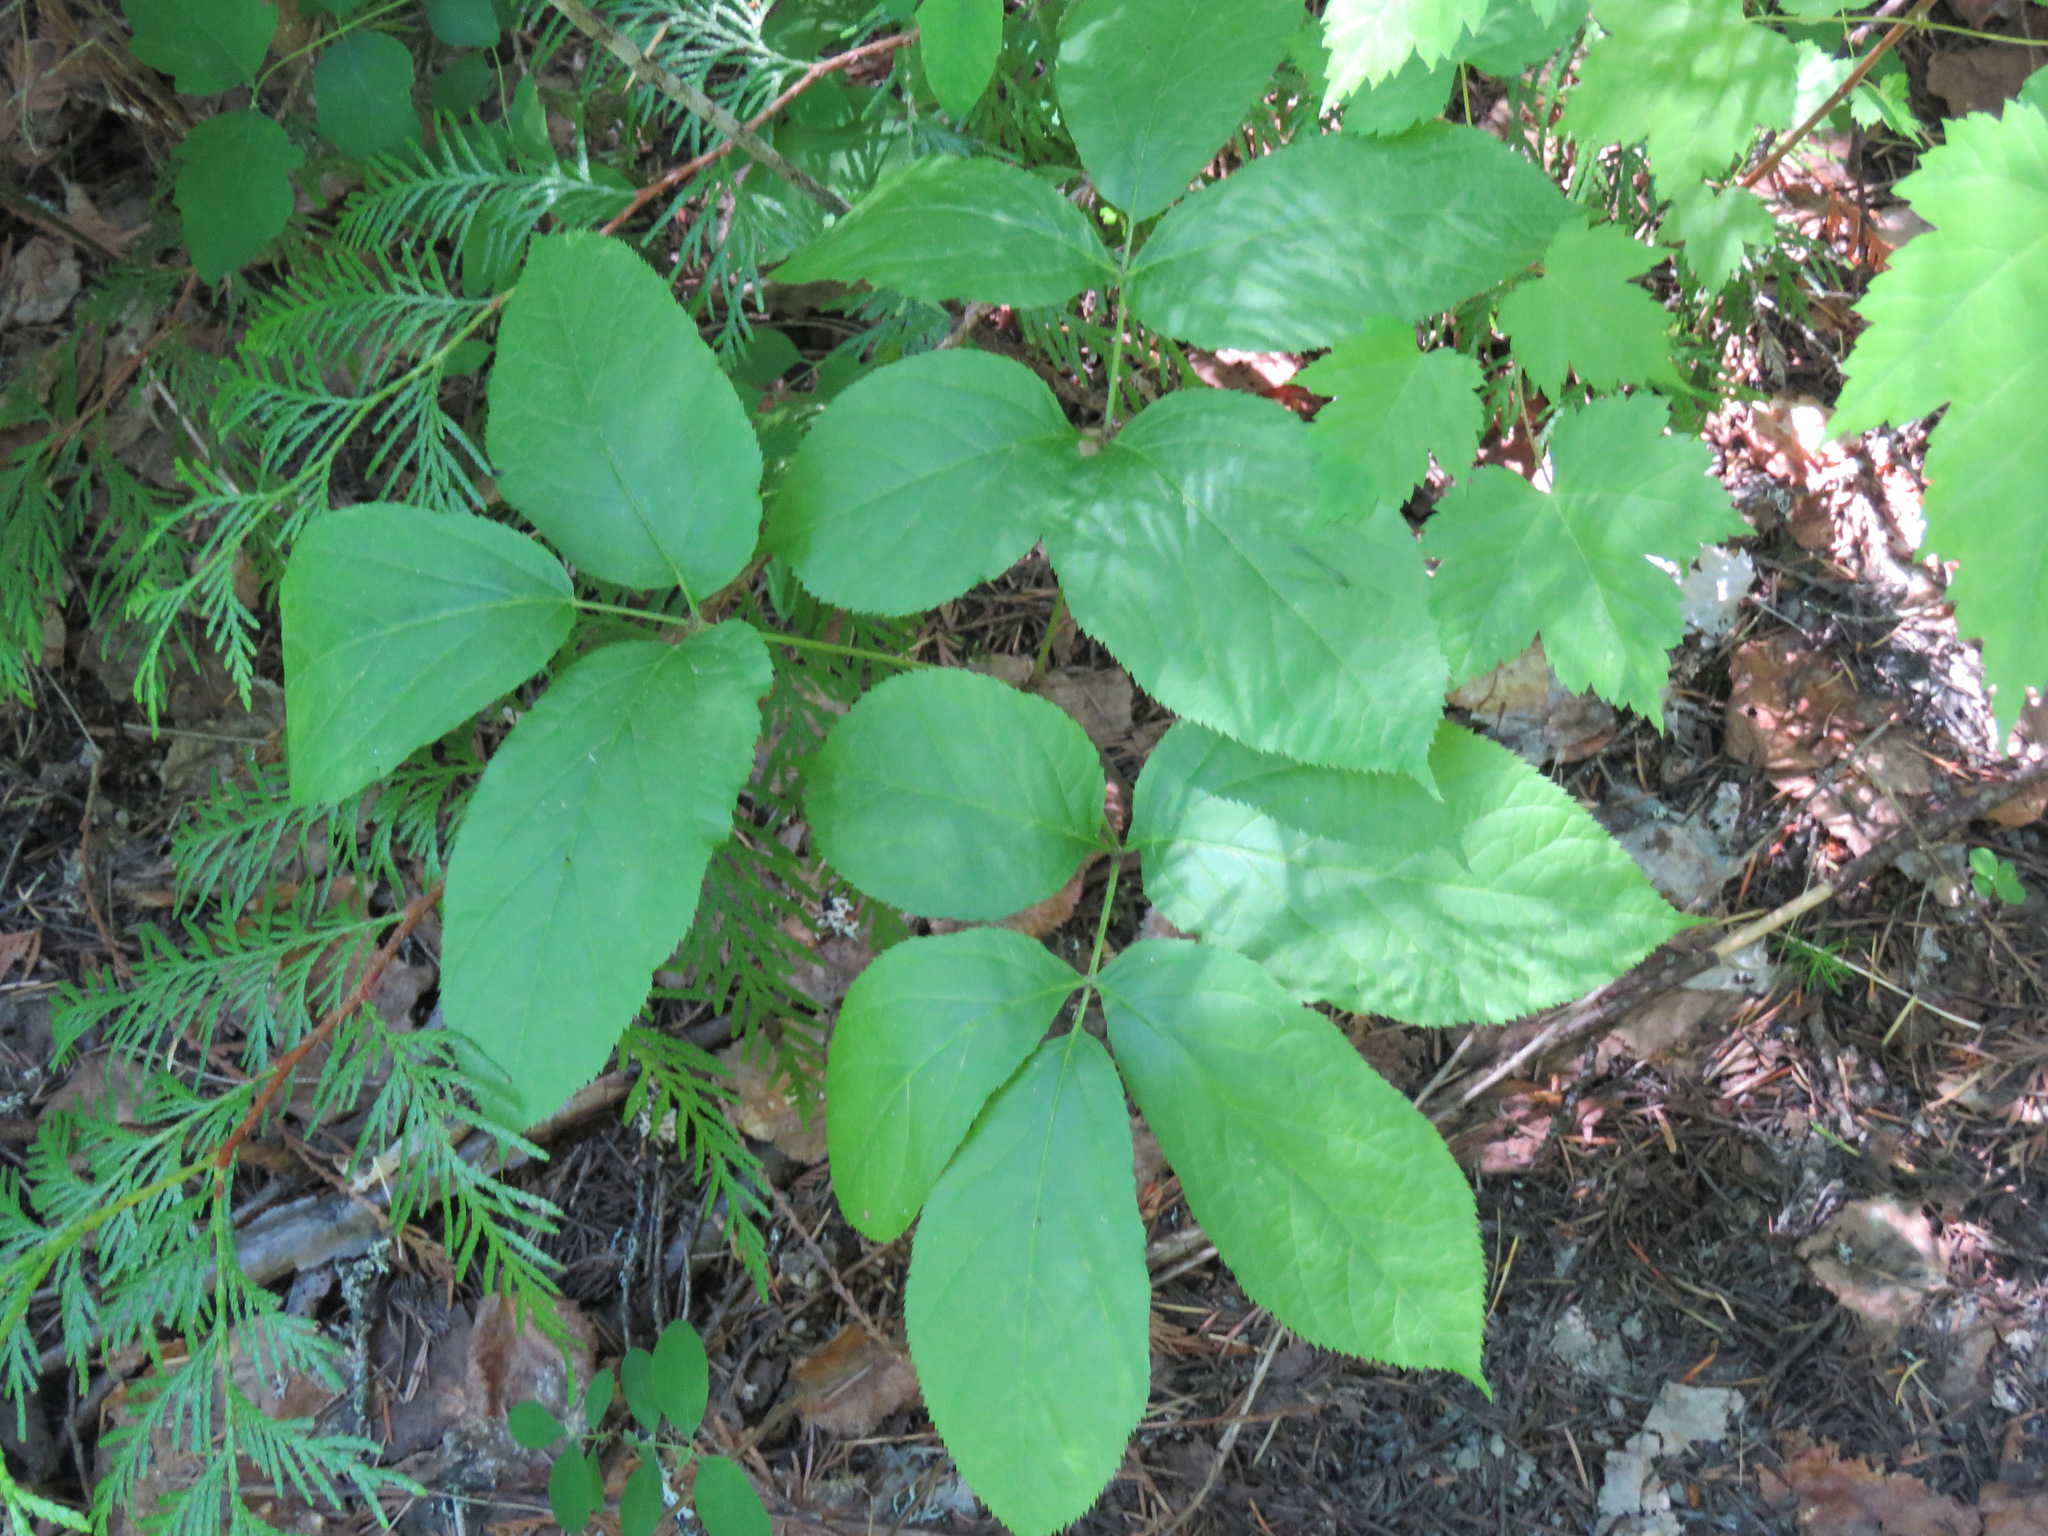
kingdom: Plantae
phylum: Tracheophyta
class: Magnoliopsida
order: Apiales
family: Araliaceae
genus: Aralia
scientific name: Aralia nudicaulis
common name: Wild sarsaparilla
